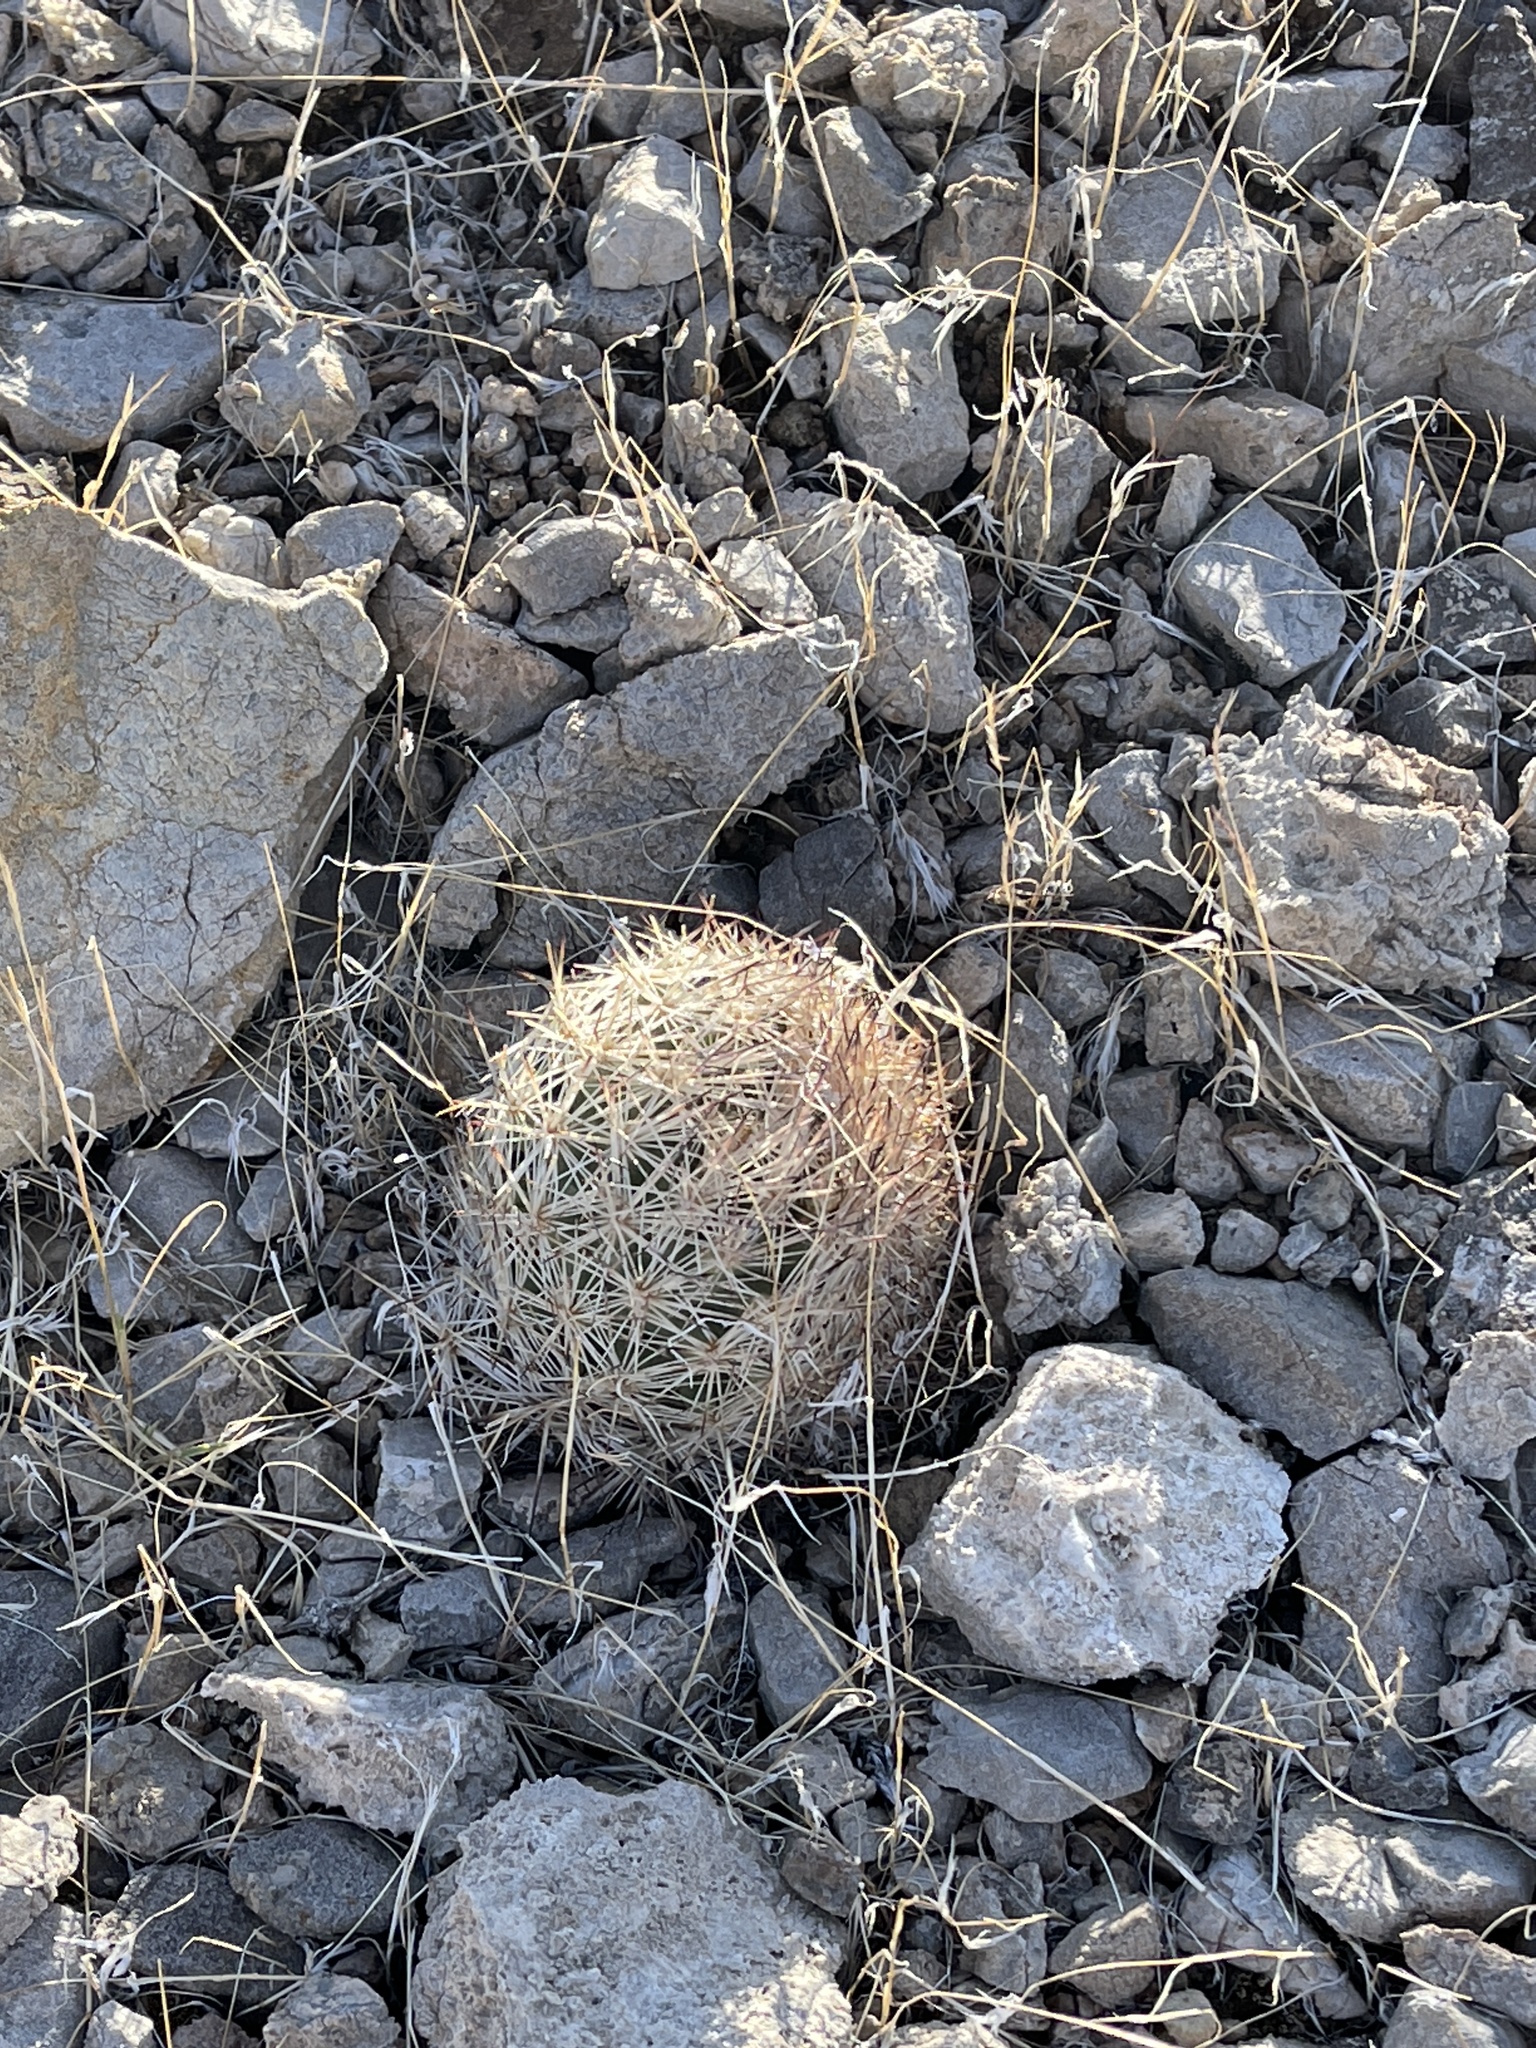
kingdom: Plantae
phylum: Tracheophyta
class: Magnoliopsida
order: Caryophyllales
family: Cactaceae
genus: Pelecyphora
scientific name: Pelecyphora dasyacantha
